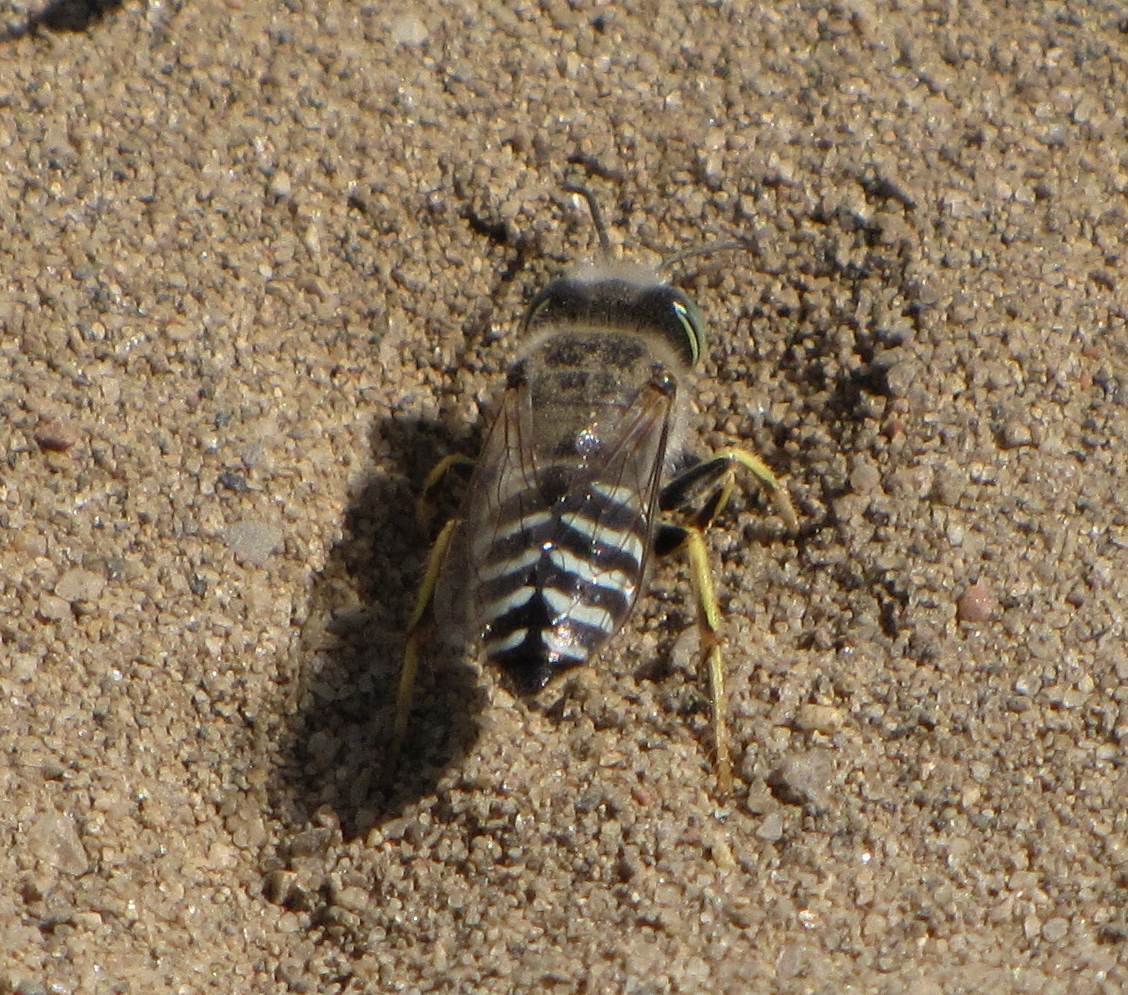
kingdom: Animalia
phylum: Arthropoda
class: Insecta
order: Hymenoptera
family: Crabronidae
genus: Bembix
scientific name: Bembix americana
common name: American sand wasp
